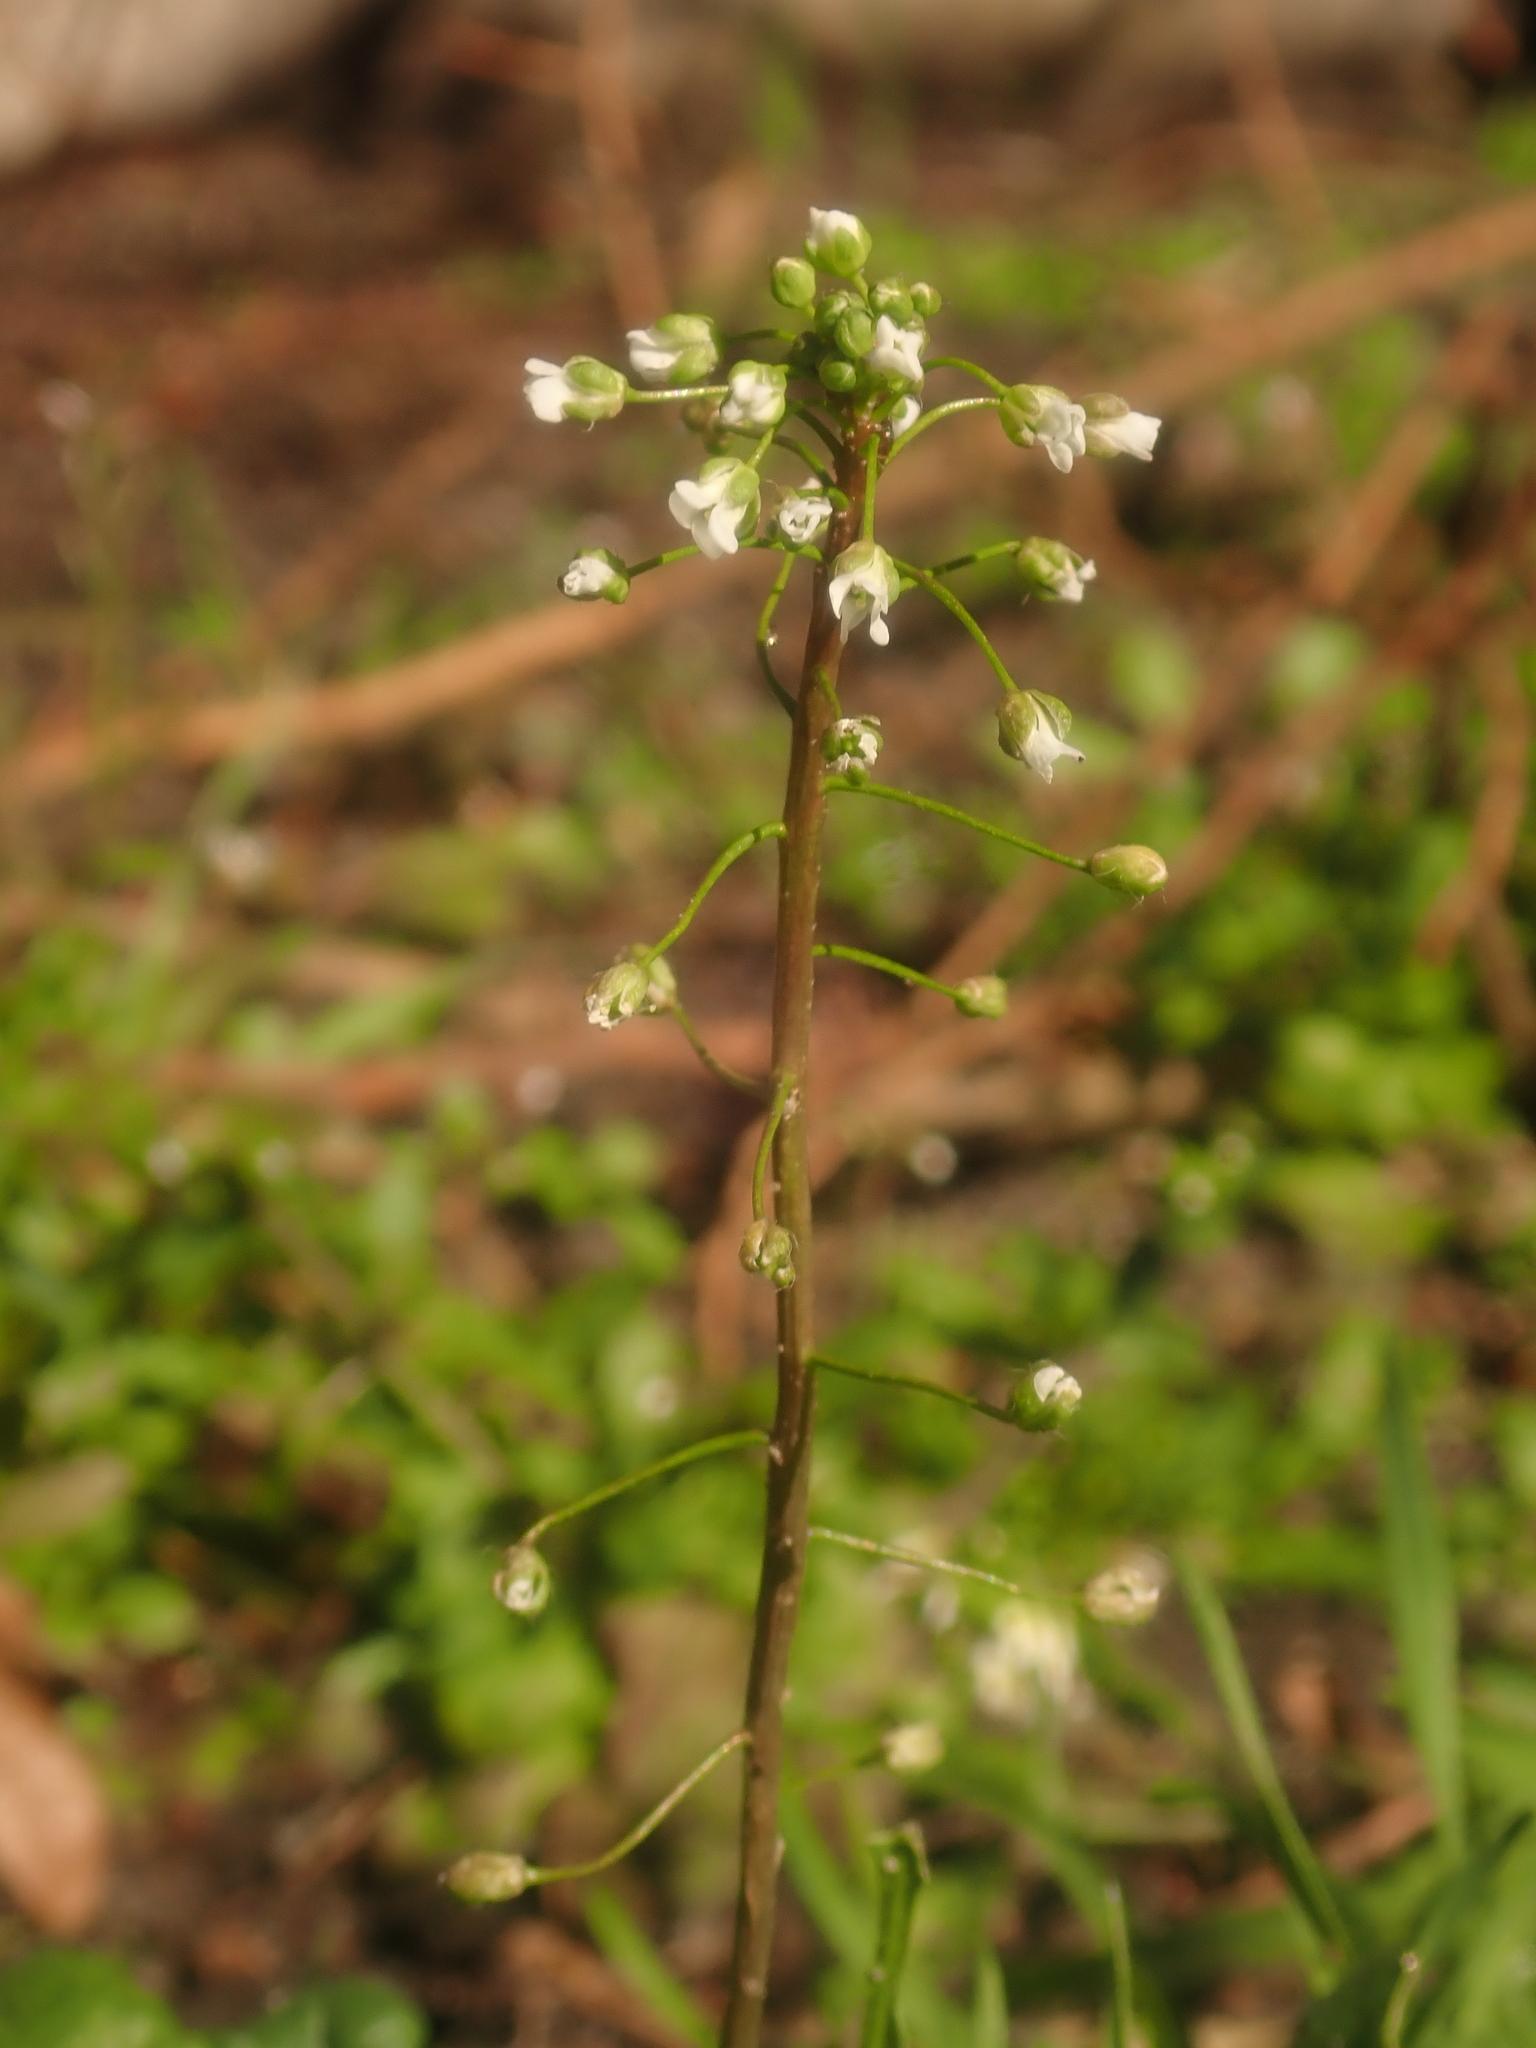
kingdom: Plantae
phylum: Tracheophyta
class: Magnoliopsida
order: Brassicales
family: Brassicaceae
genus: Capsella
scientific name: Capsella bursa-pastoris
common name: Shepherd's purse
